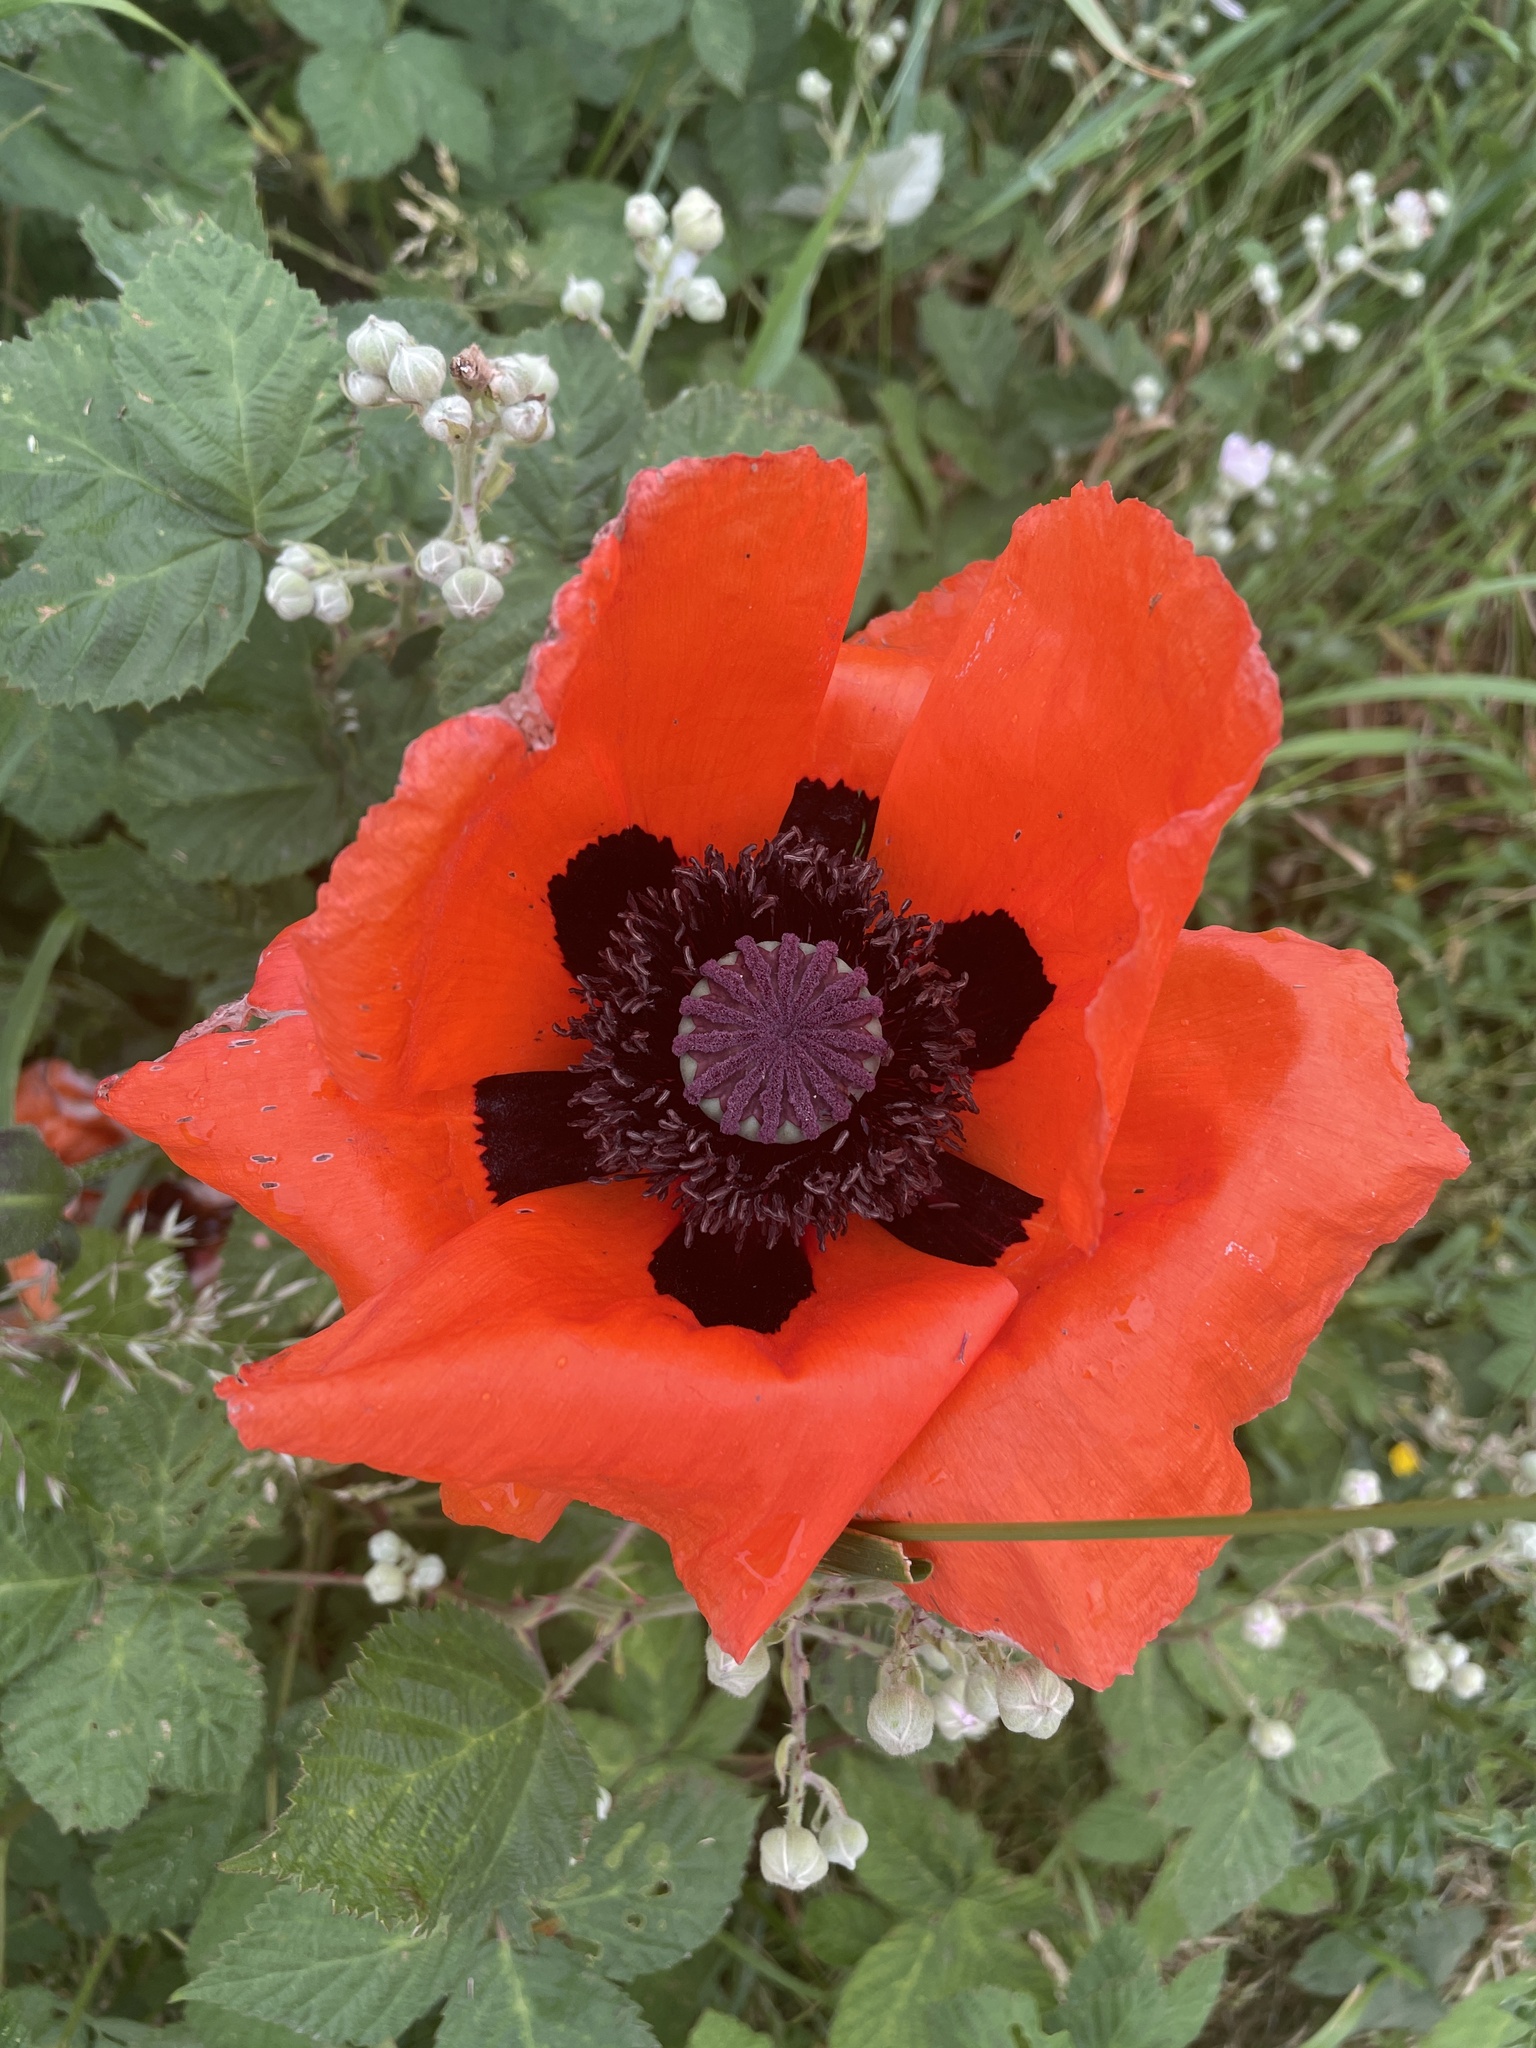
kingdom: Plantae
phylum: Tracheophyta
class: Magnoliopsida
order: Ranunculales
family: Papaveraceae
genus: Papaver
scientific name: Papaver orientale
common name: Oriental poppy
